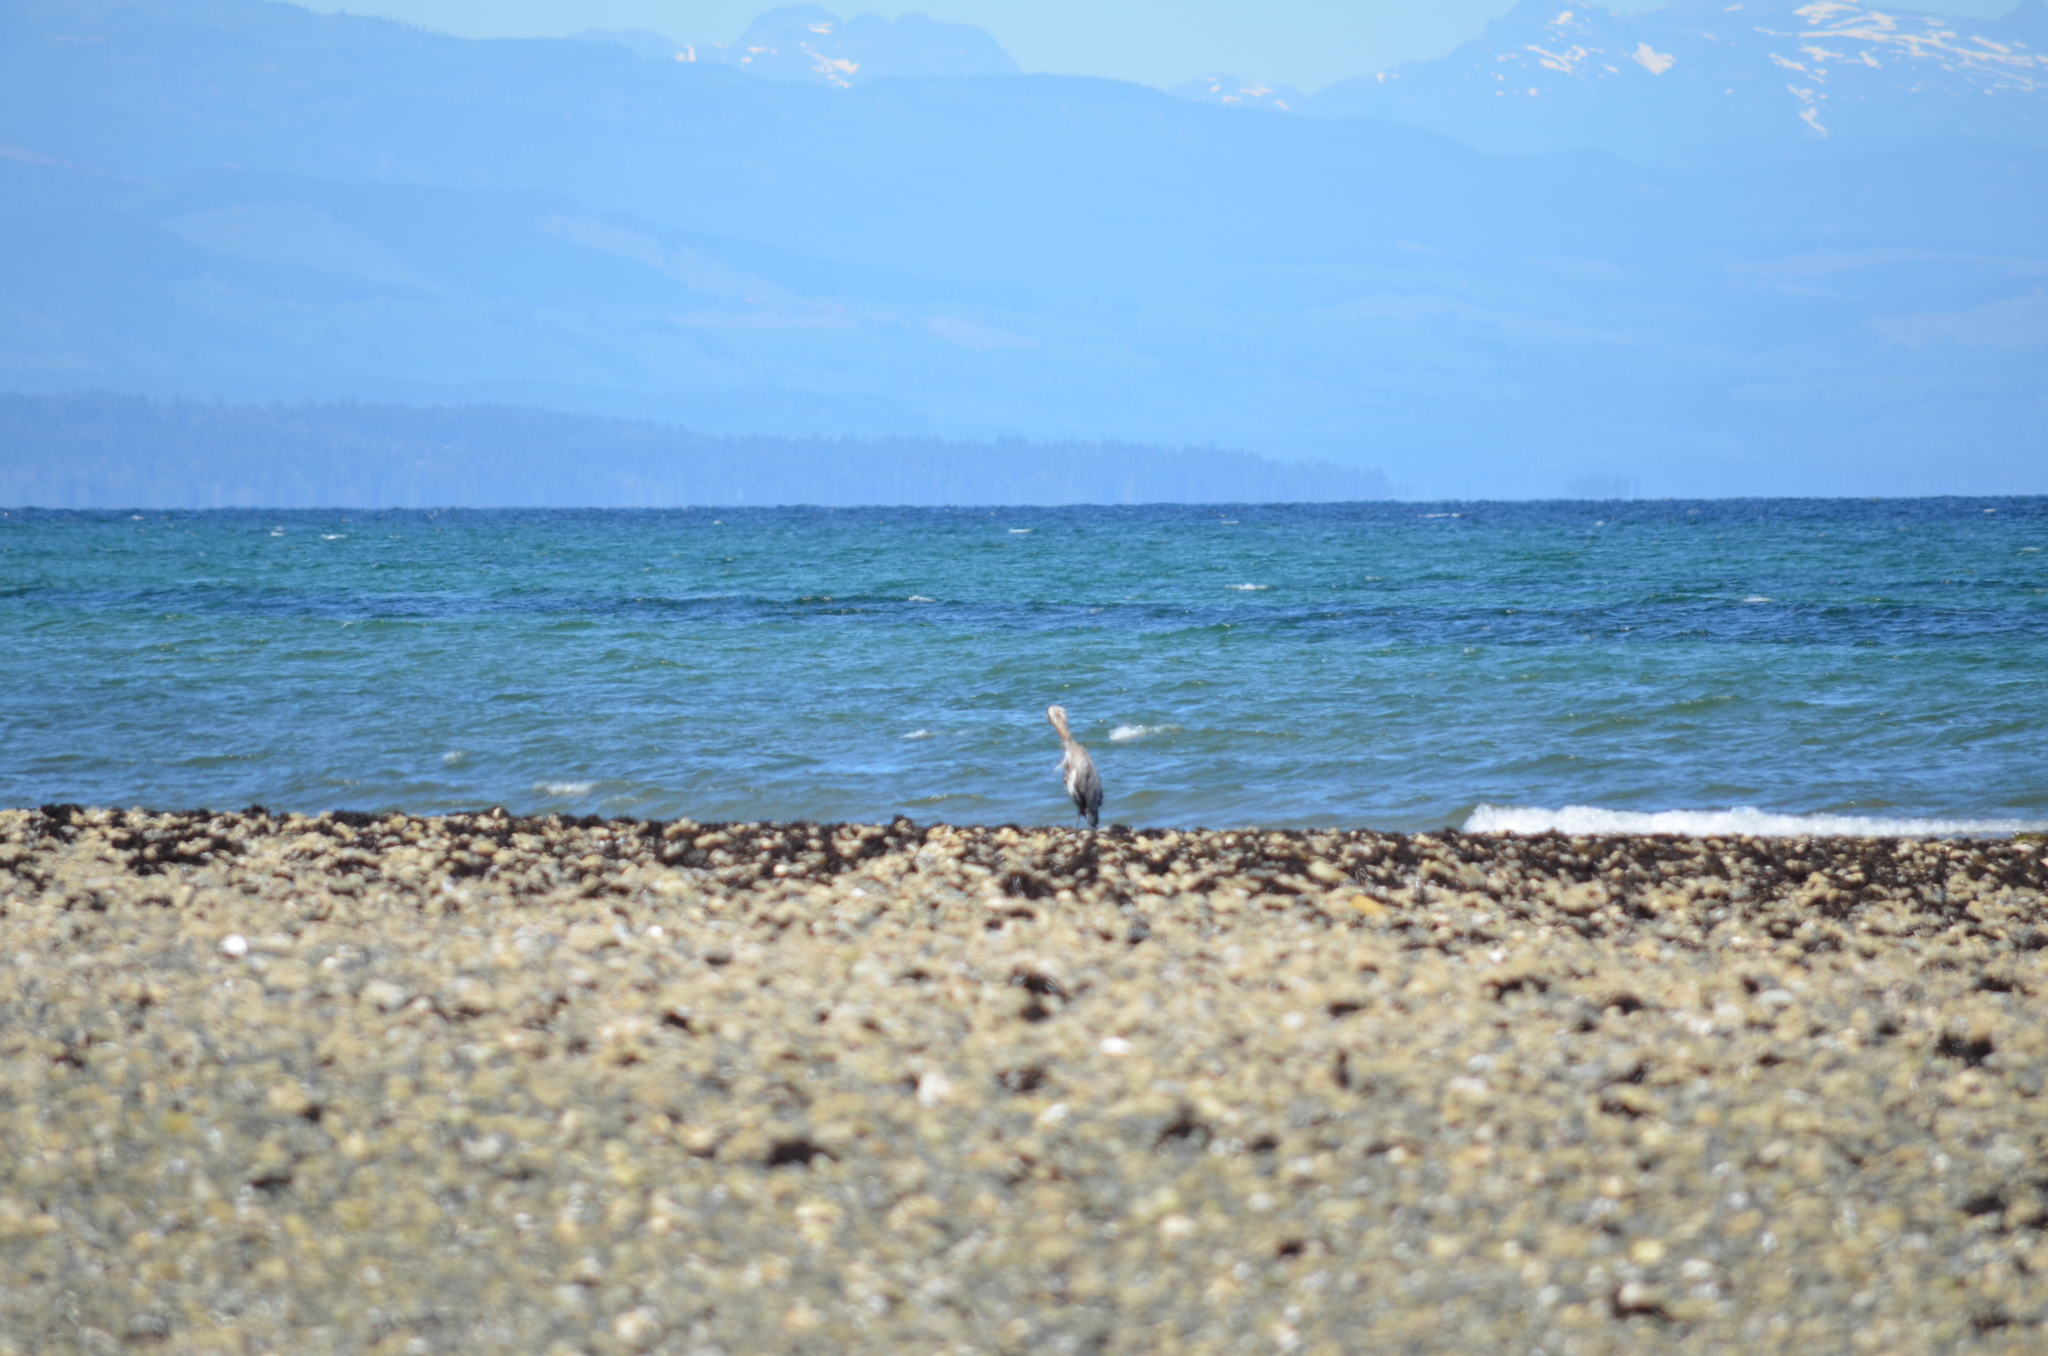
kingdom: Animalia
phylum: Chordata
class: Aves
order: Pelecaniformes
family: Ardeidae
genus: Ardea
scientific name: Ardea herodias
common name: Great blue heron
